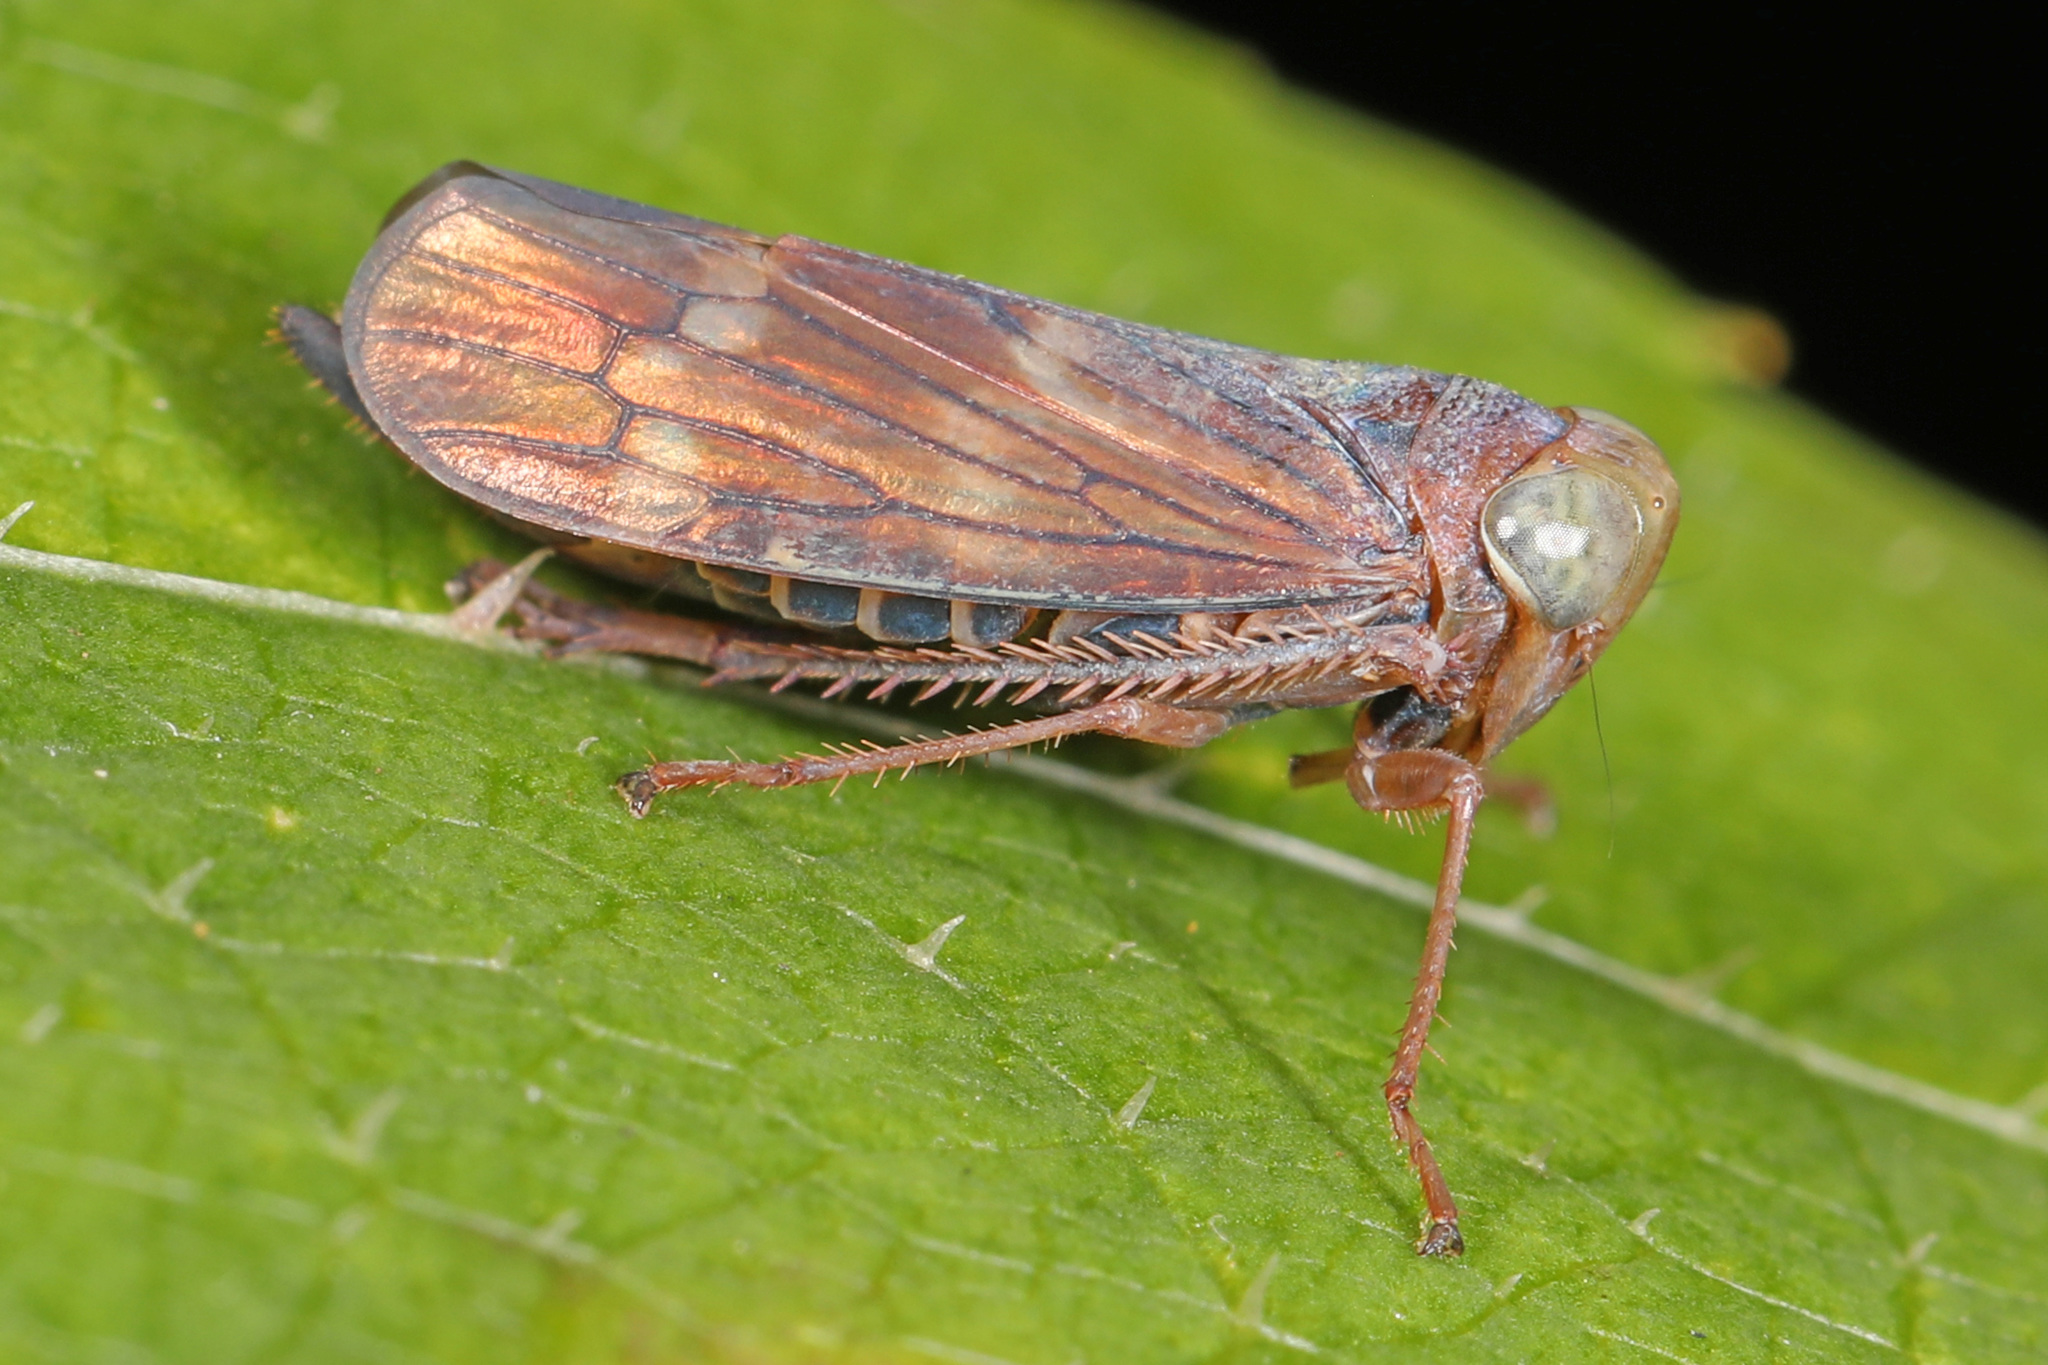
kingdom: Animalia
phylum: Arthropoda
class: Insecta
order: Hemiptera
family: Cicadellidae
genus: Jikradia
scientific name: Jikradia olitoria
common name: Coppery leafhopper
